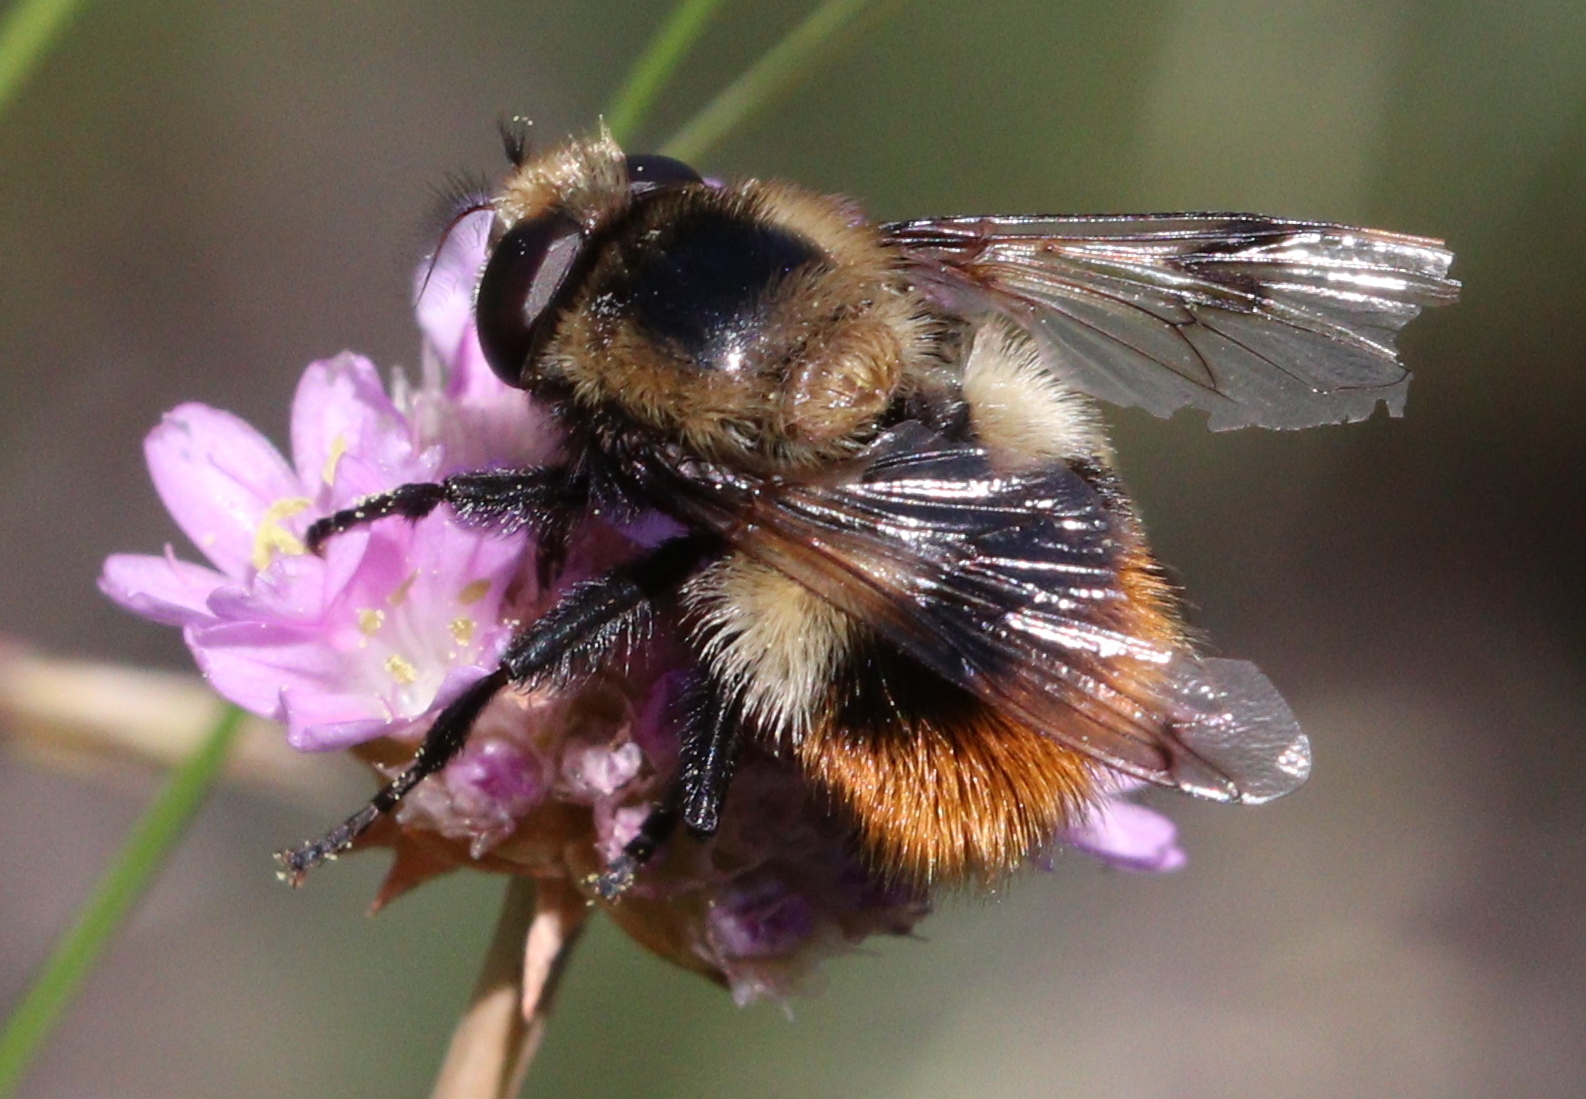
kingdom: Animalia
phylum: Arthropoda
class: Insecta
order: Diptera
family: Syrphidae
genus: Volucella
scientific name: Volucella bombylans
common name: Bumble bee hover fly
